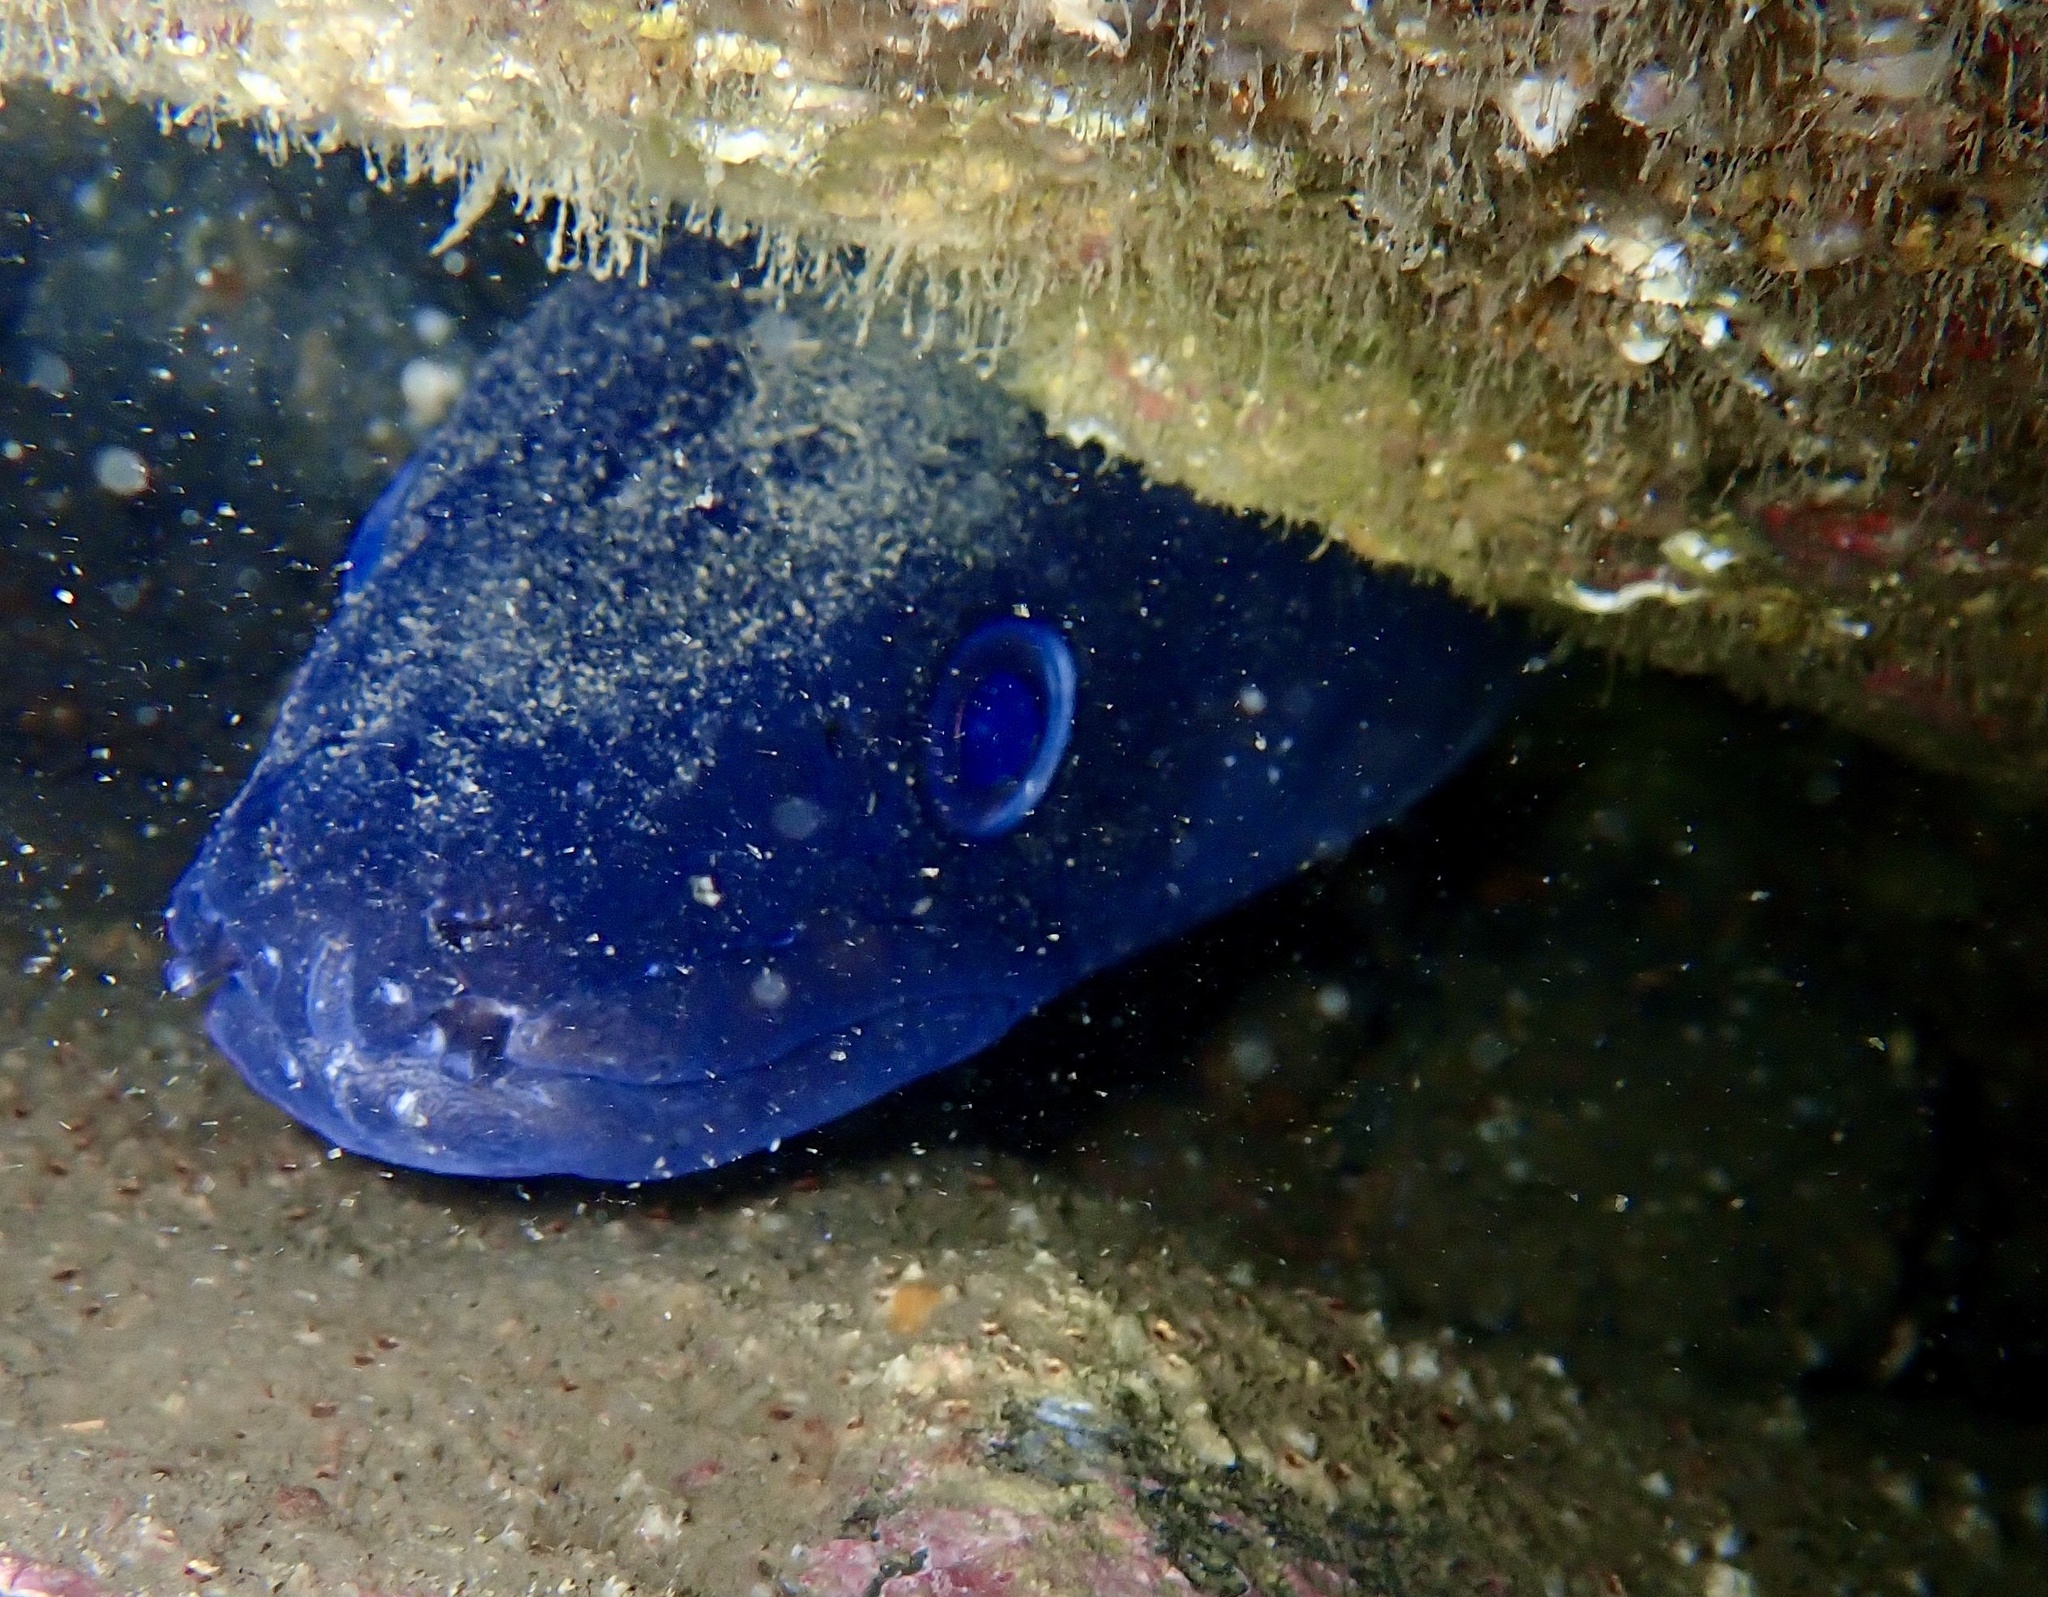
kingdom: Animalia
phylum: Chordata
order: Anguilliformes
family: Congridae
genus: Conger
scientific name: Conger conger
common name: Conger eel
